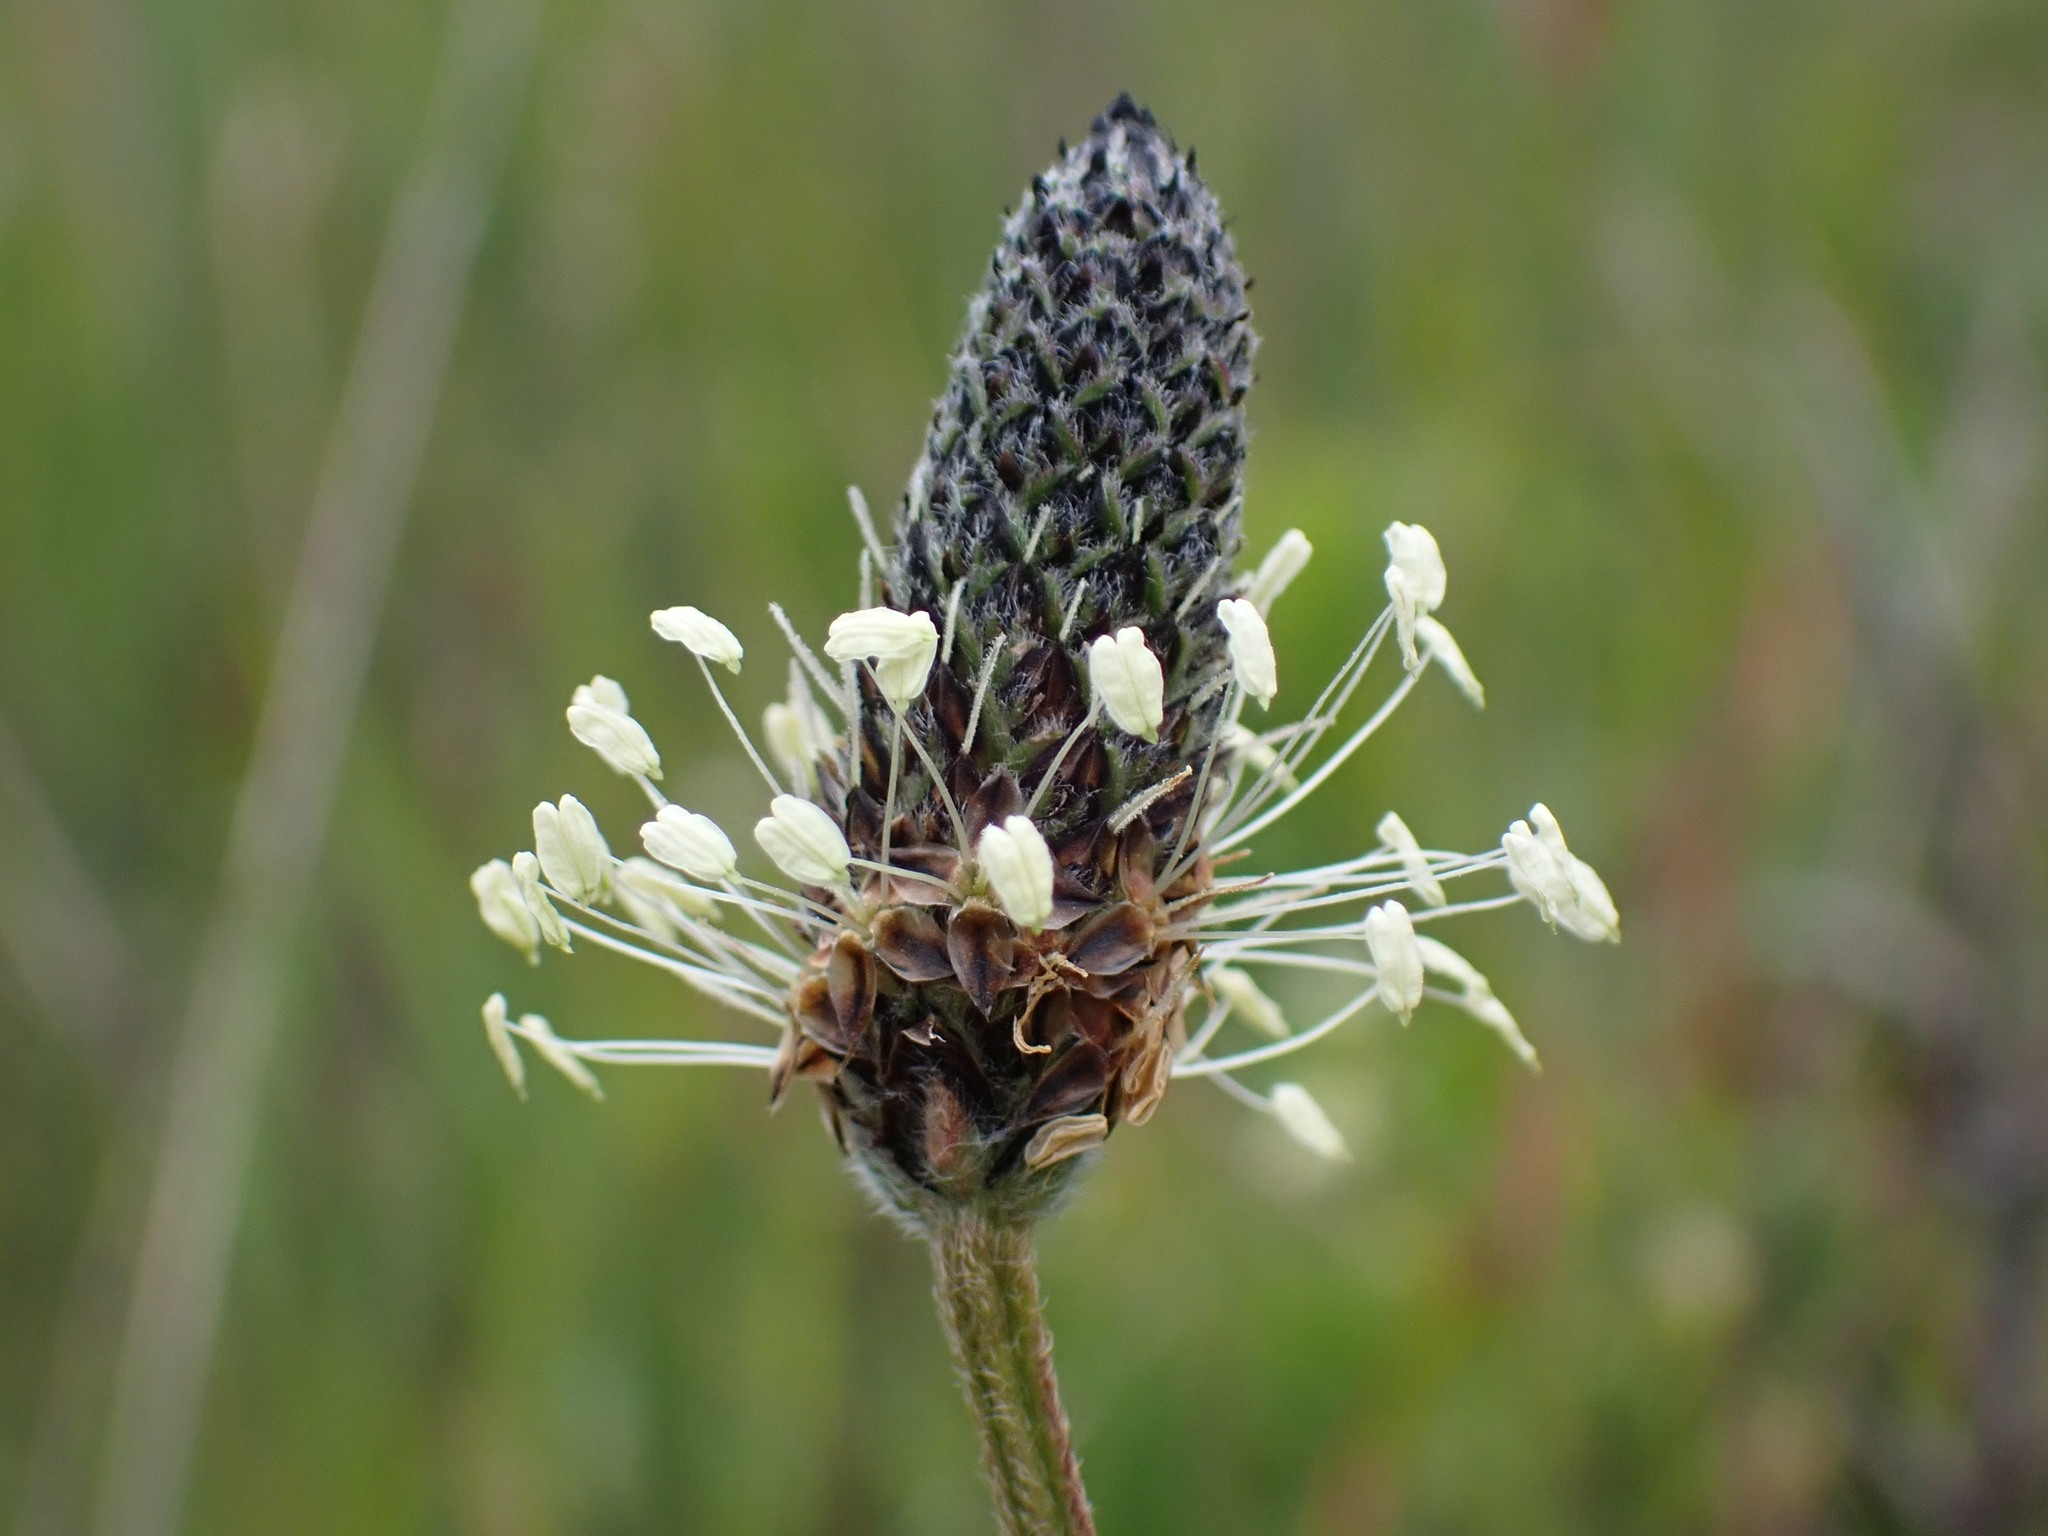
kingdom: Plantae
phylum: Tracheophyta
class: Magnoliopsida
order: Lamiales
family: Plantaginaceae
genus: Plantago
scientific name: Plantago lanceolata
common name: Ribwort plantain
